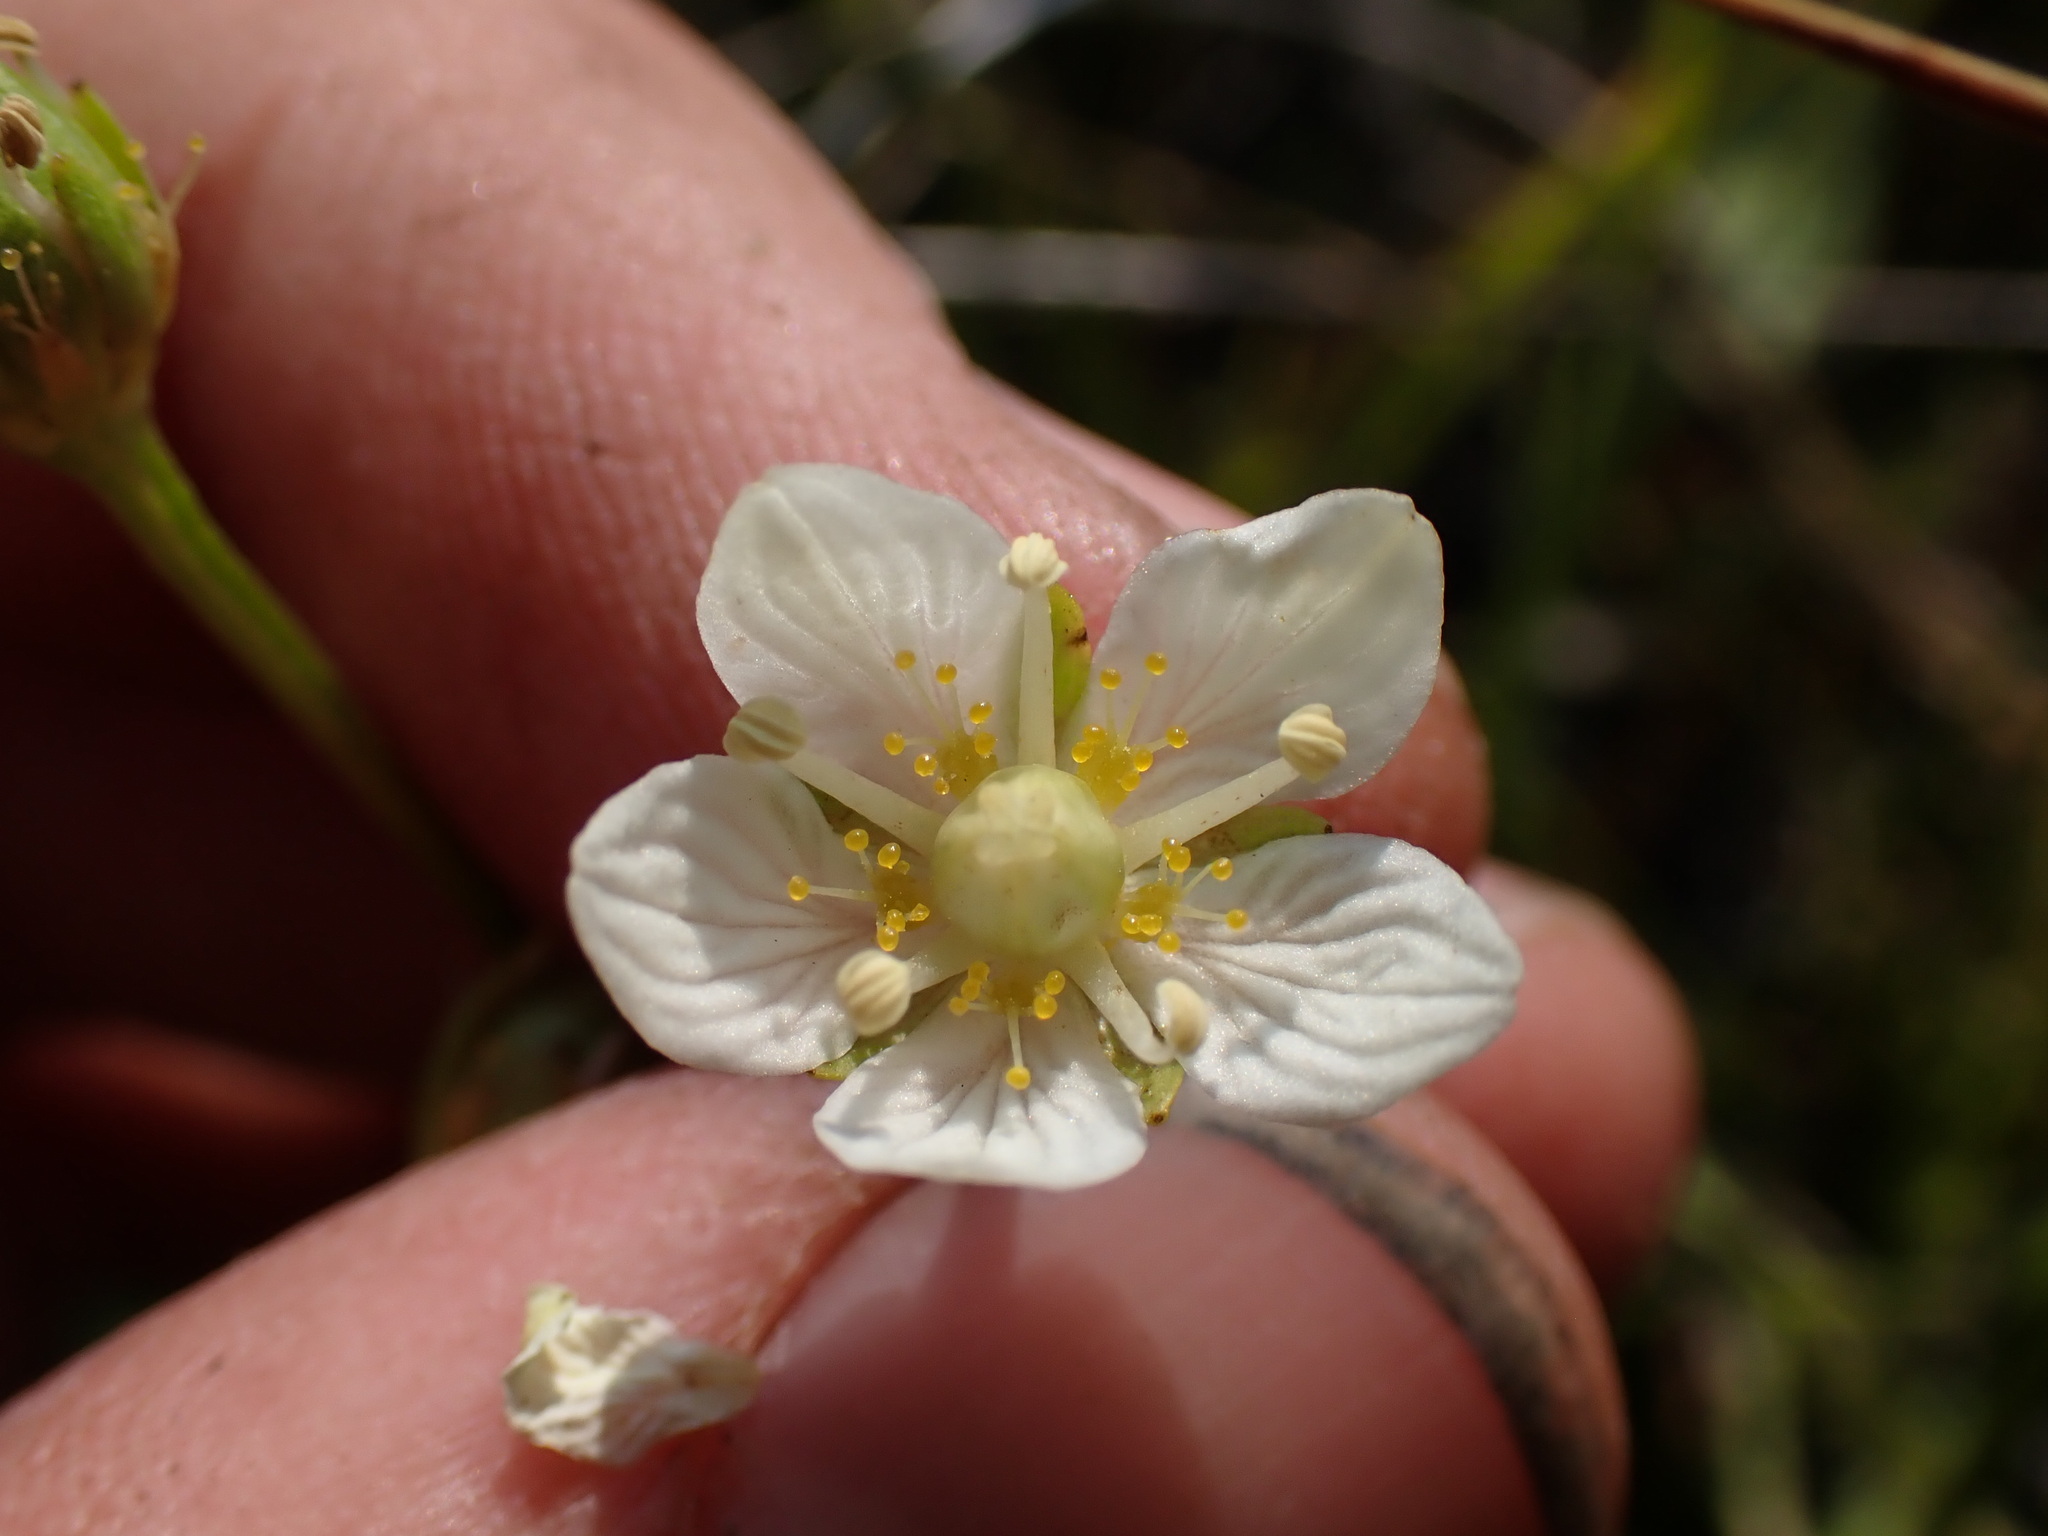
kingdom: Plantae
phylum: Tracheophyta
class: Magnoliopsida
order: Celastrales
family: Parnassiaceae
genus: Parnassia
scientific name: Parnassia palustris
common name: Grass-of-parnassus
